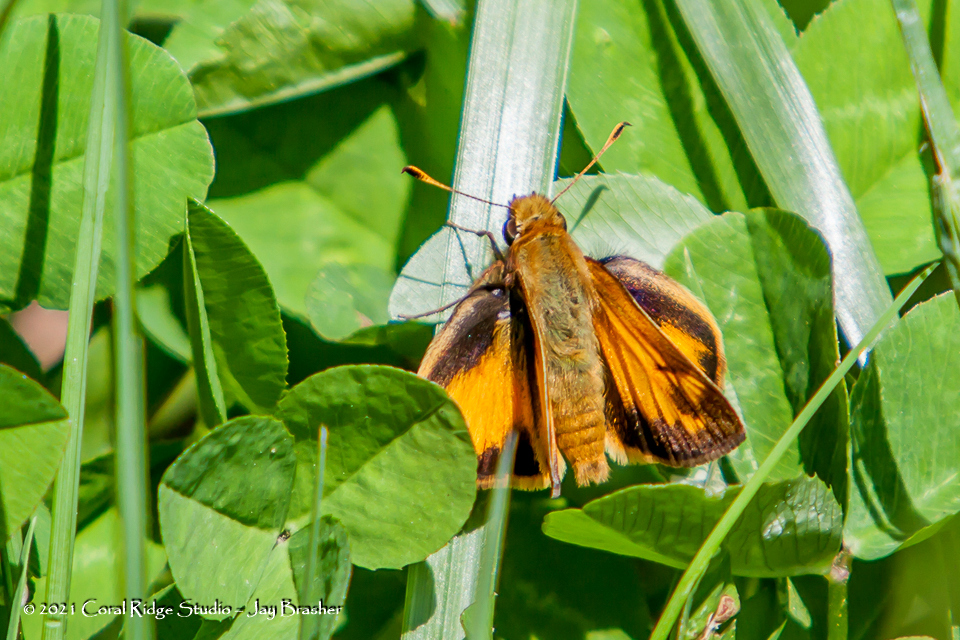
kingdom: Animalia
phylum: Arthropoda
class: Insecta
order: Lepidoptera
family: Hesperiidae
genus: Lon
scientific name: Lon zabulon
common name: Zabulon skipper
